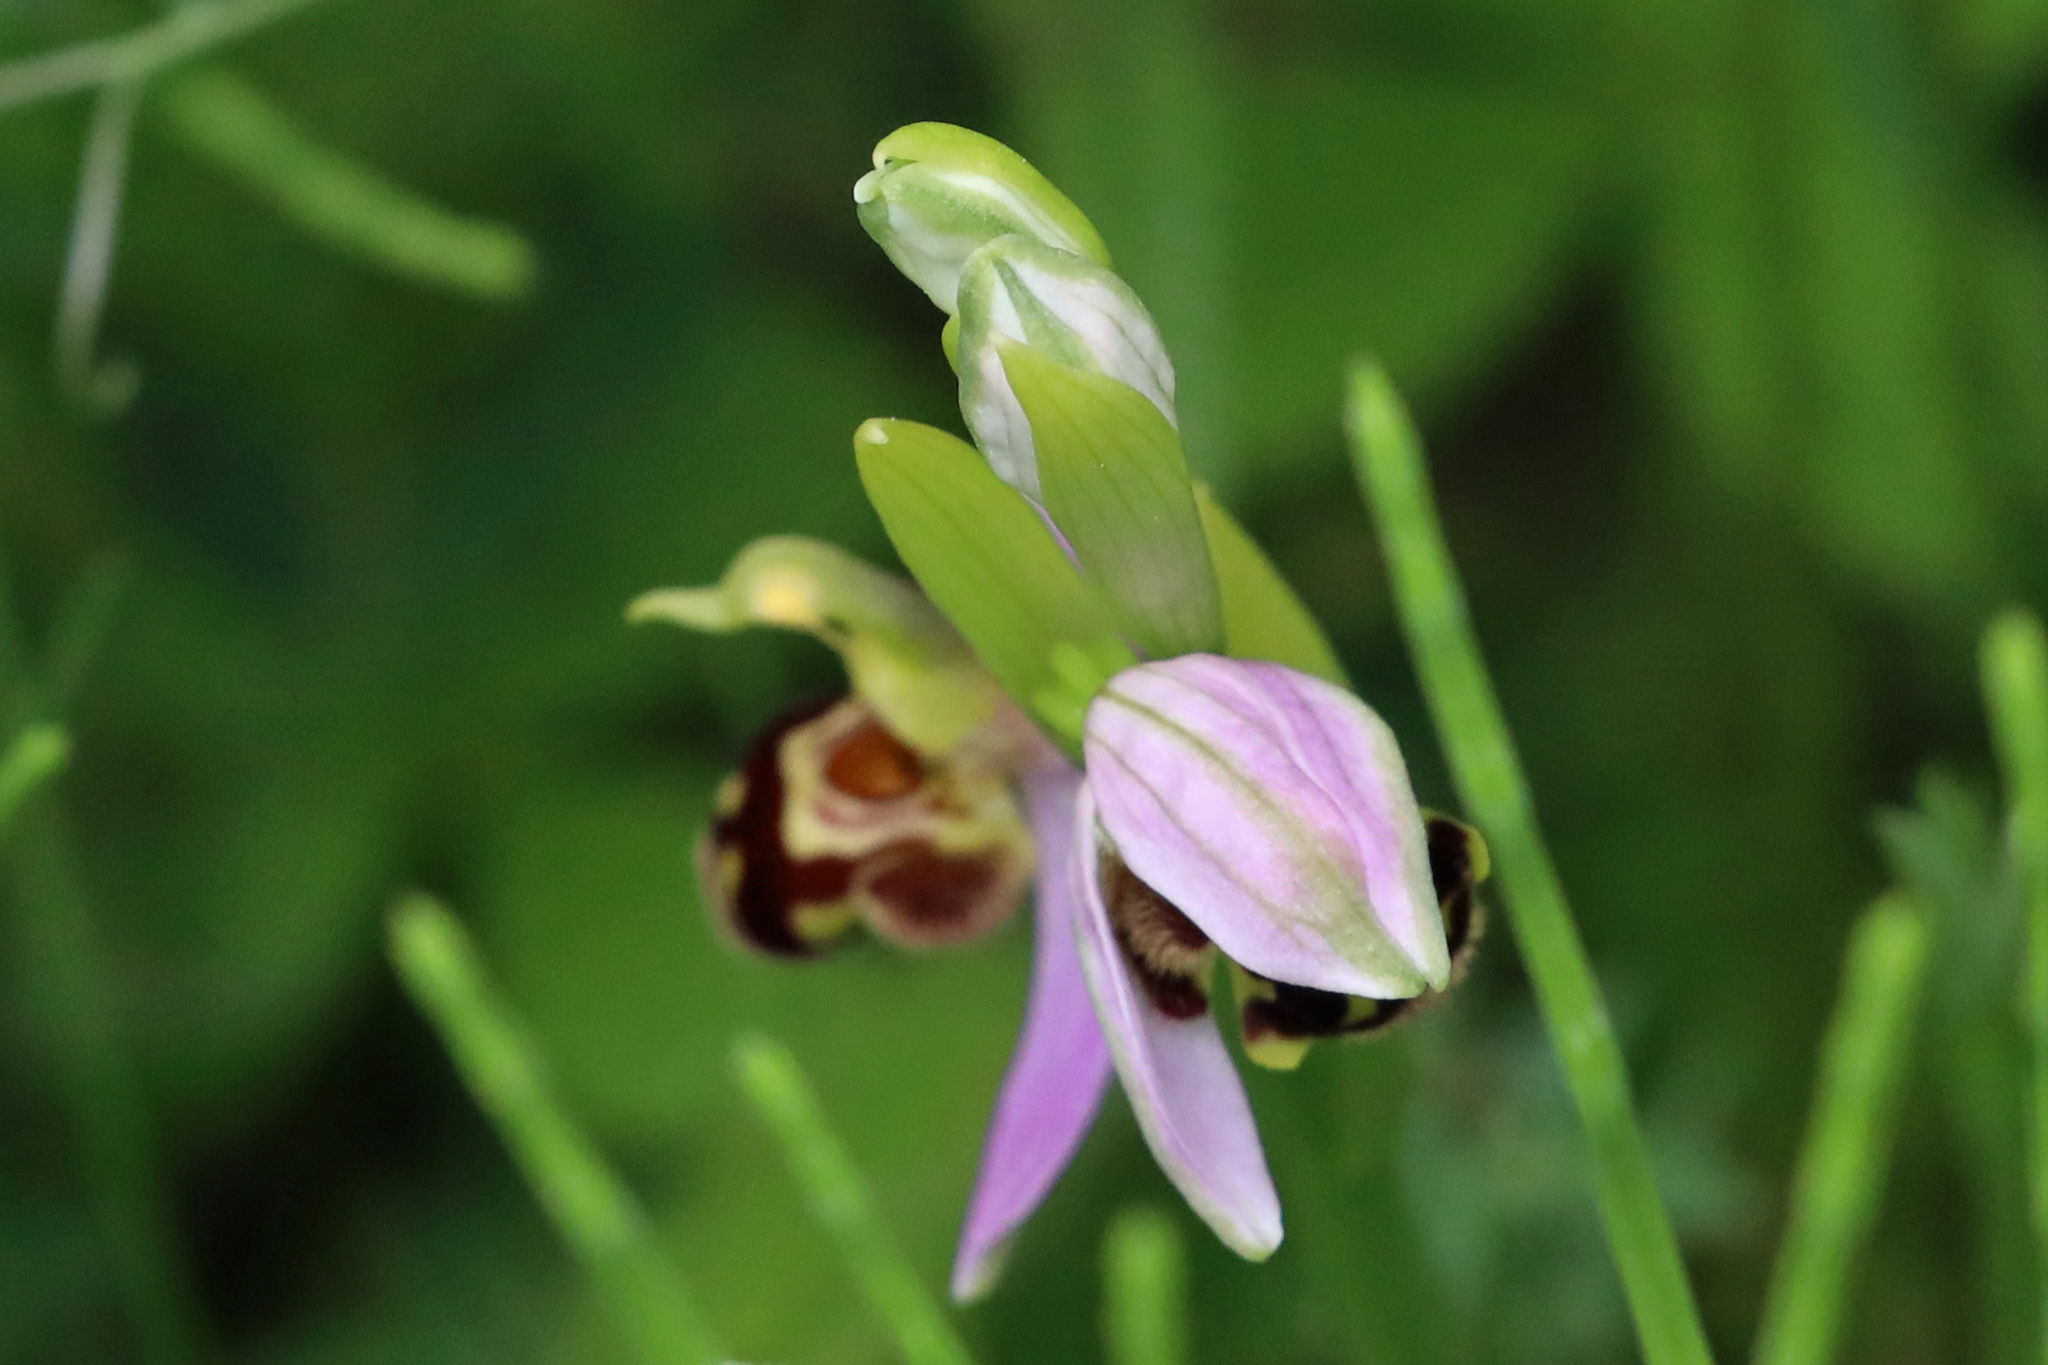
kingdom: Plantae
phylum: Tracheophyta
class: Liliopsida
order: Asparagales
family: Orchidaceae
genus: Ophrys
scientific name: Ophrys apifera
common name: Bee orchid
